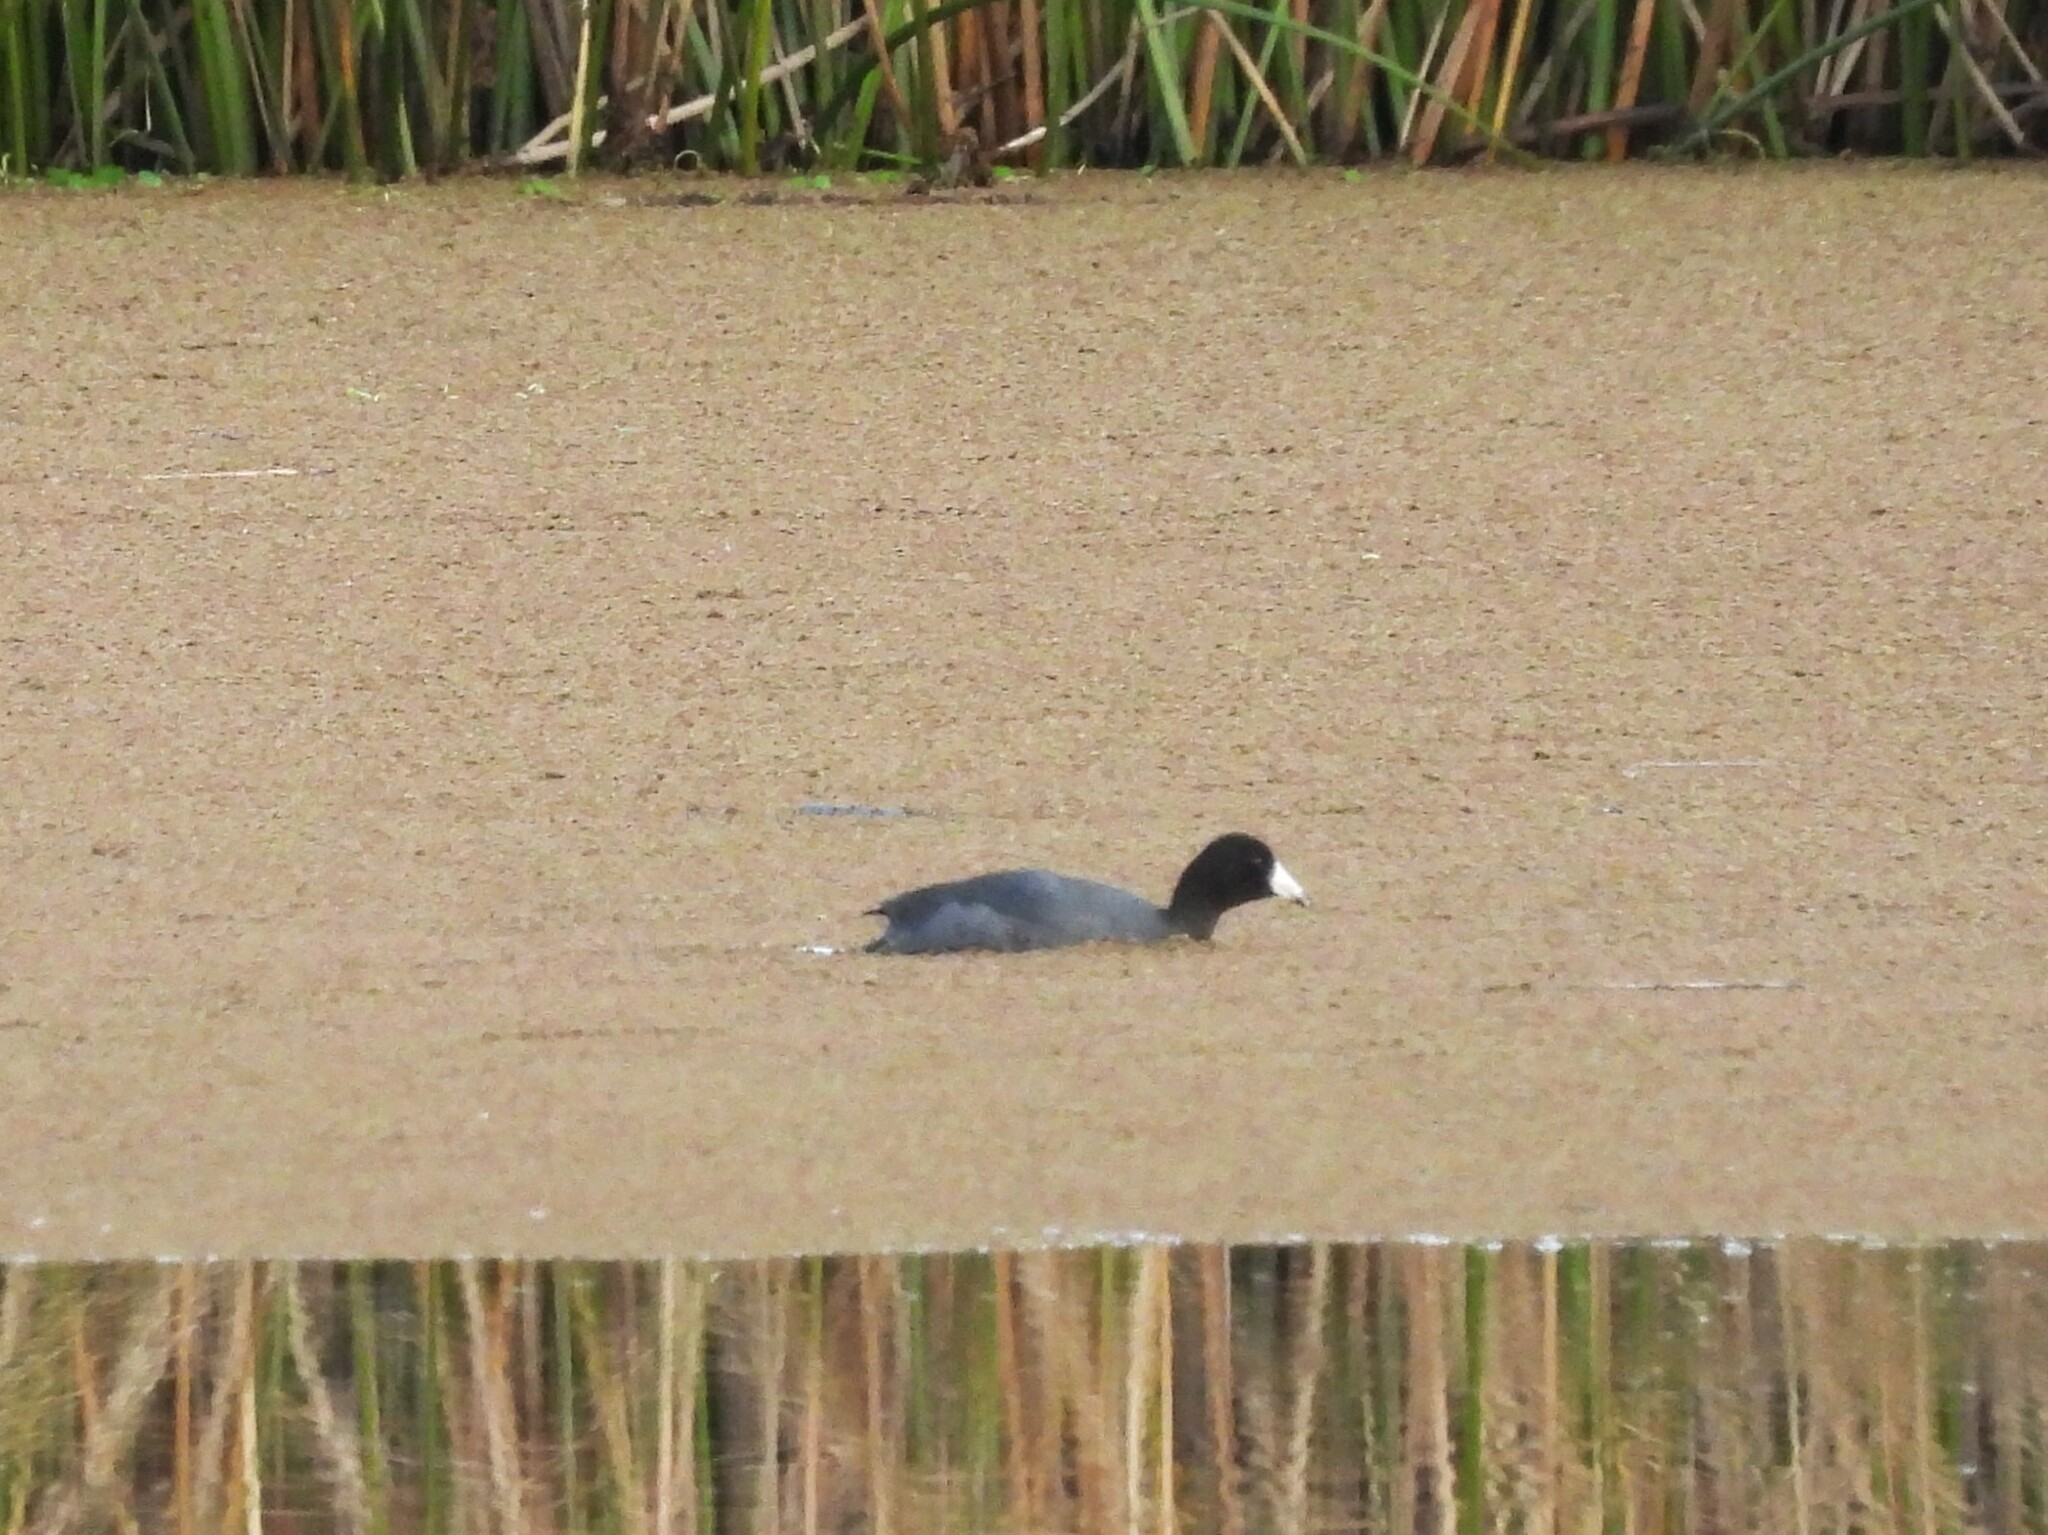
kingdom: Animalia
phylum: Chordata
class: Aves
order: Gruiformes
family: Rallidae
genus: Fulica
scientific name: Fulica americana
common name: American coot
